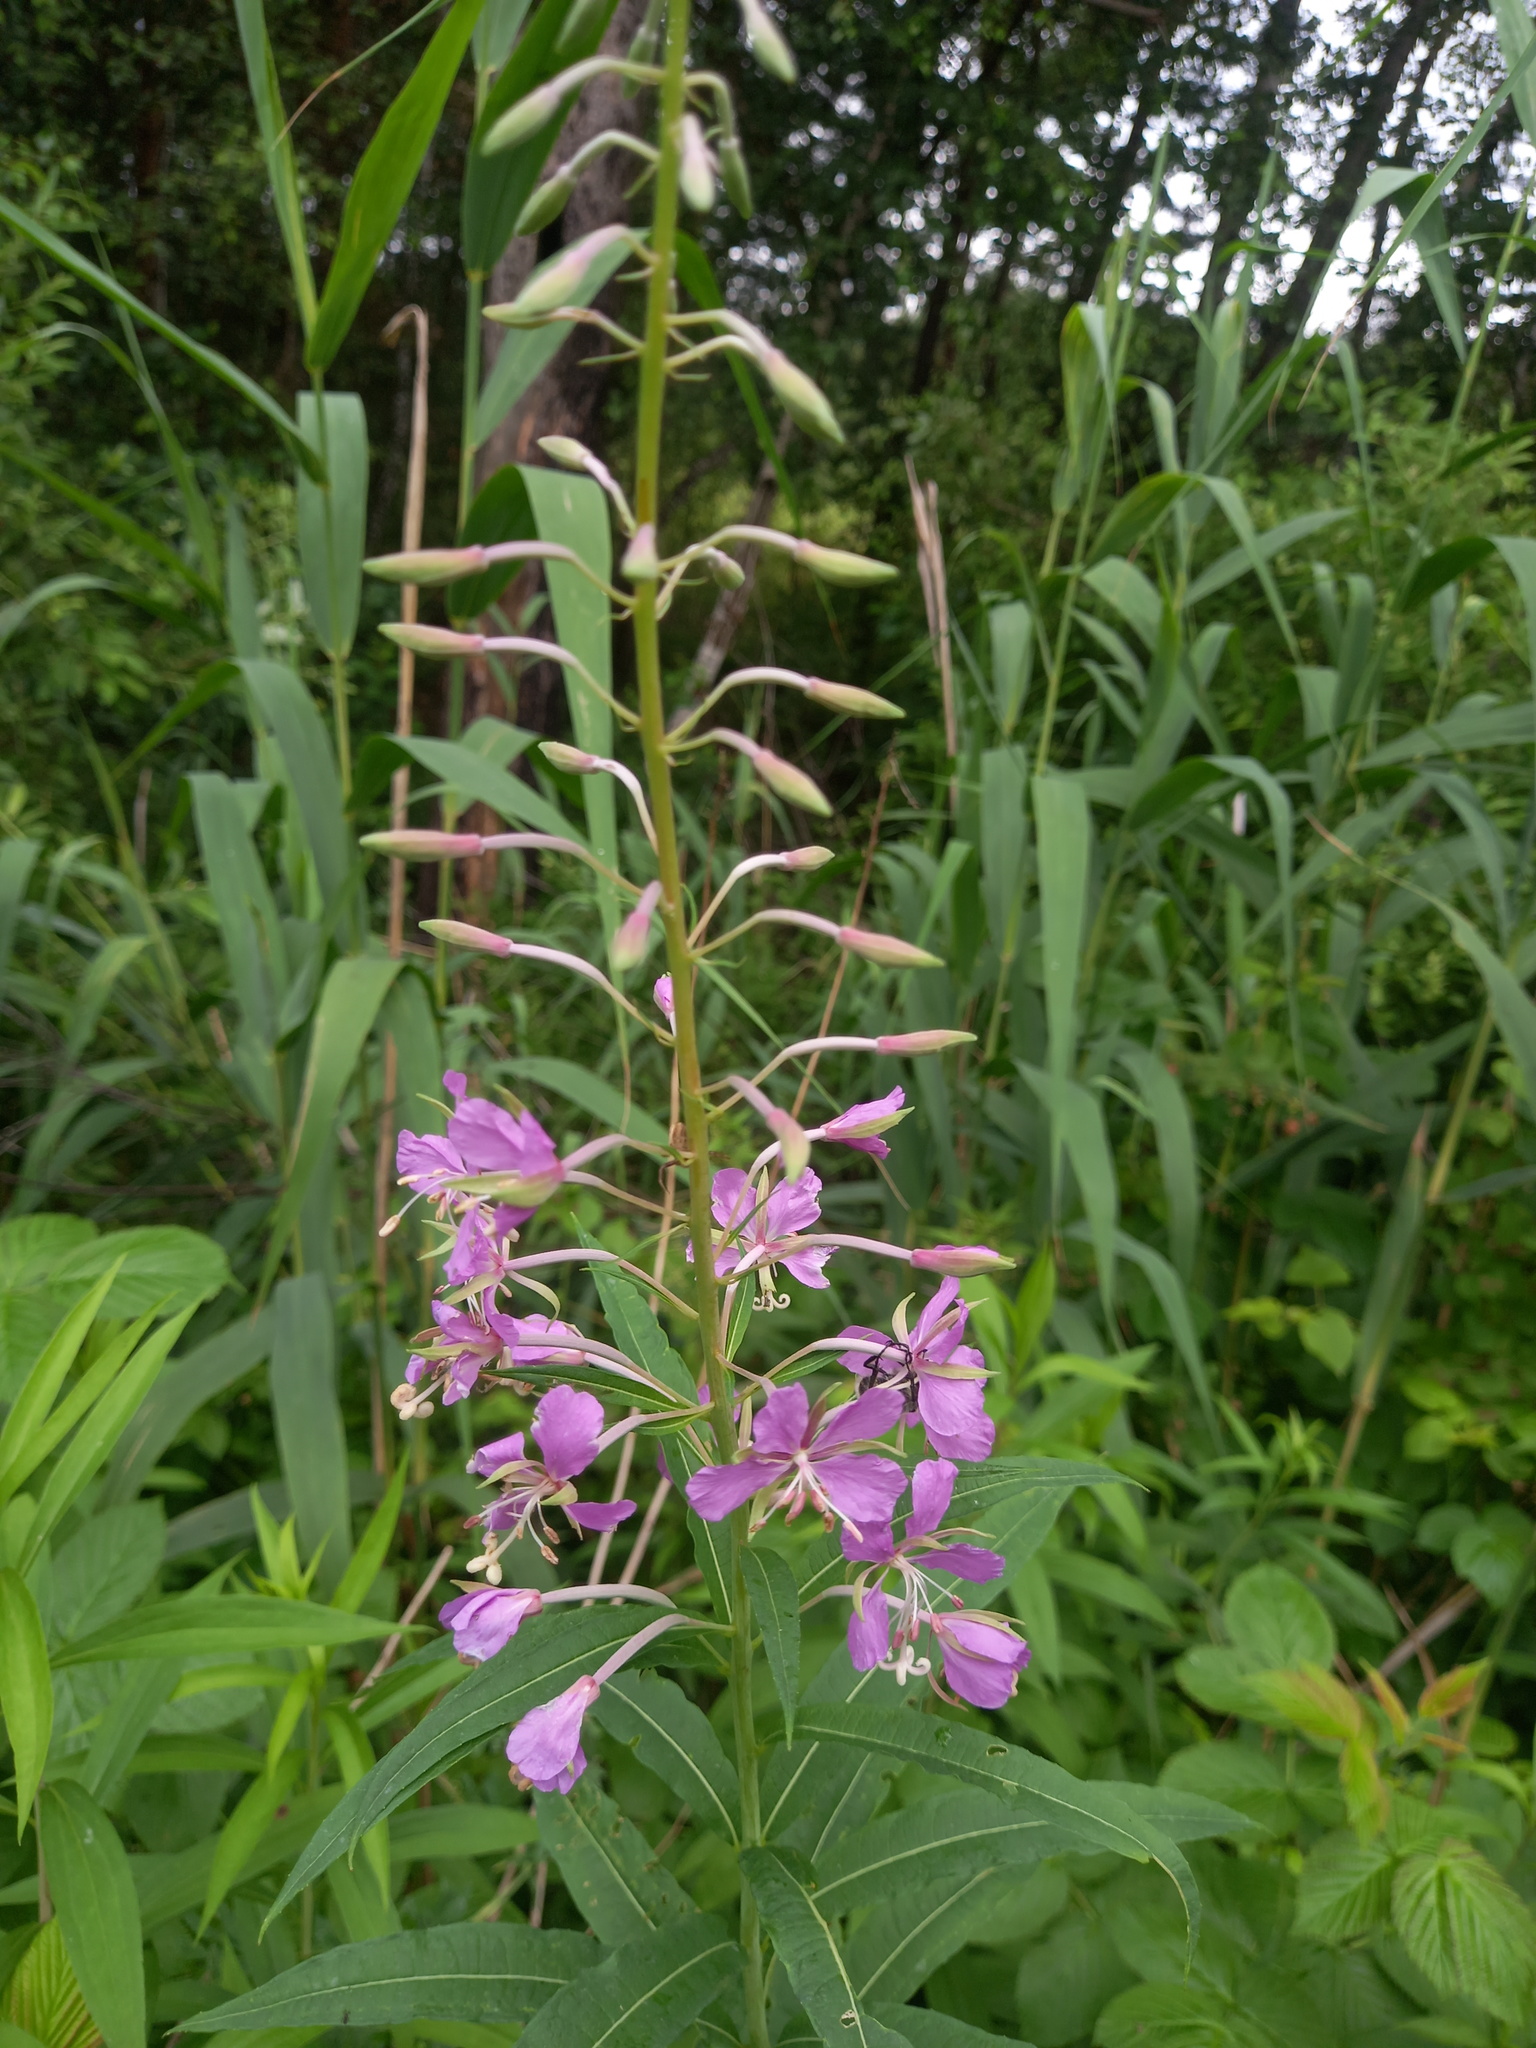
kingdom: Plantae
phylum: Tracheophyta
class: Magnoliopsida
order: Myrtales
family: Onagraceae
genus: Chamaenerion
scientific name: Chamaenerion angustifolium
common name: Fireweed
